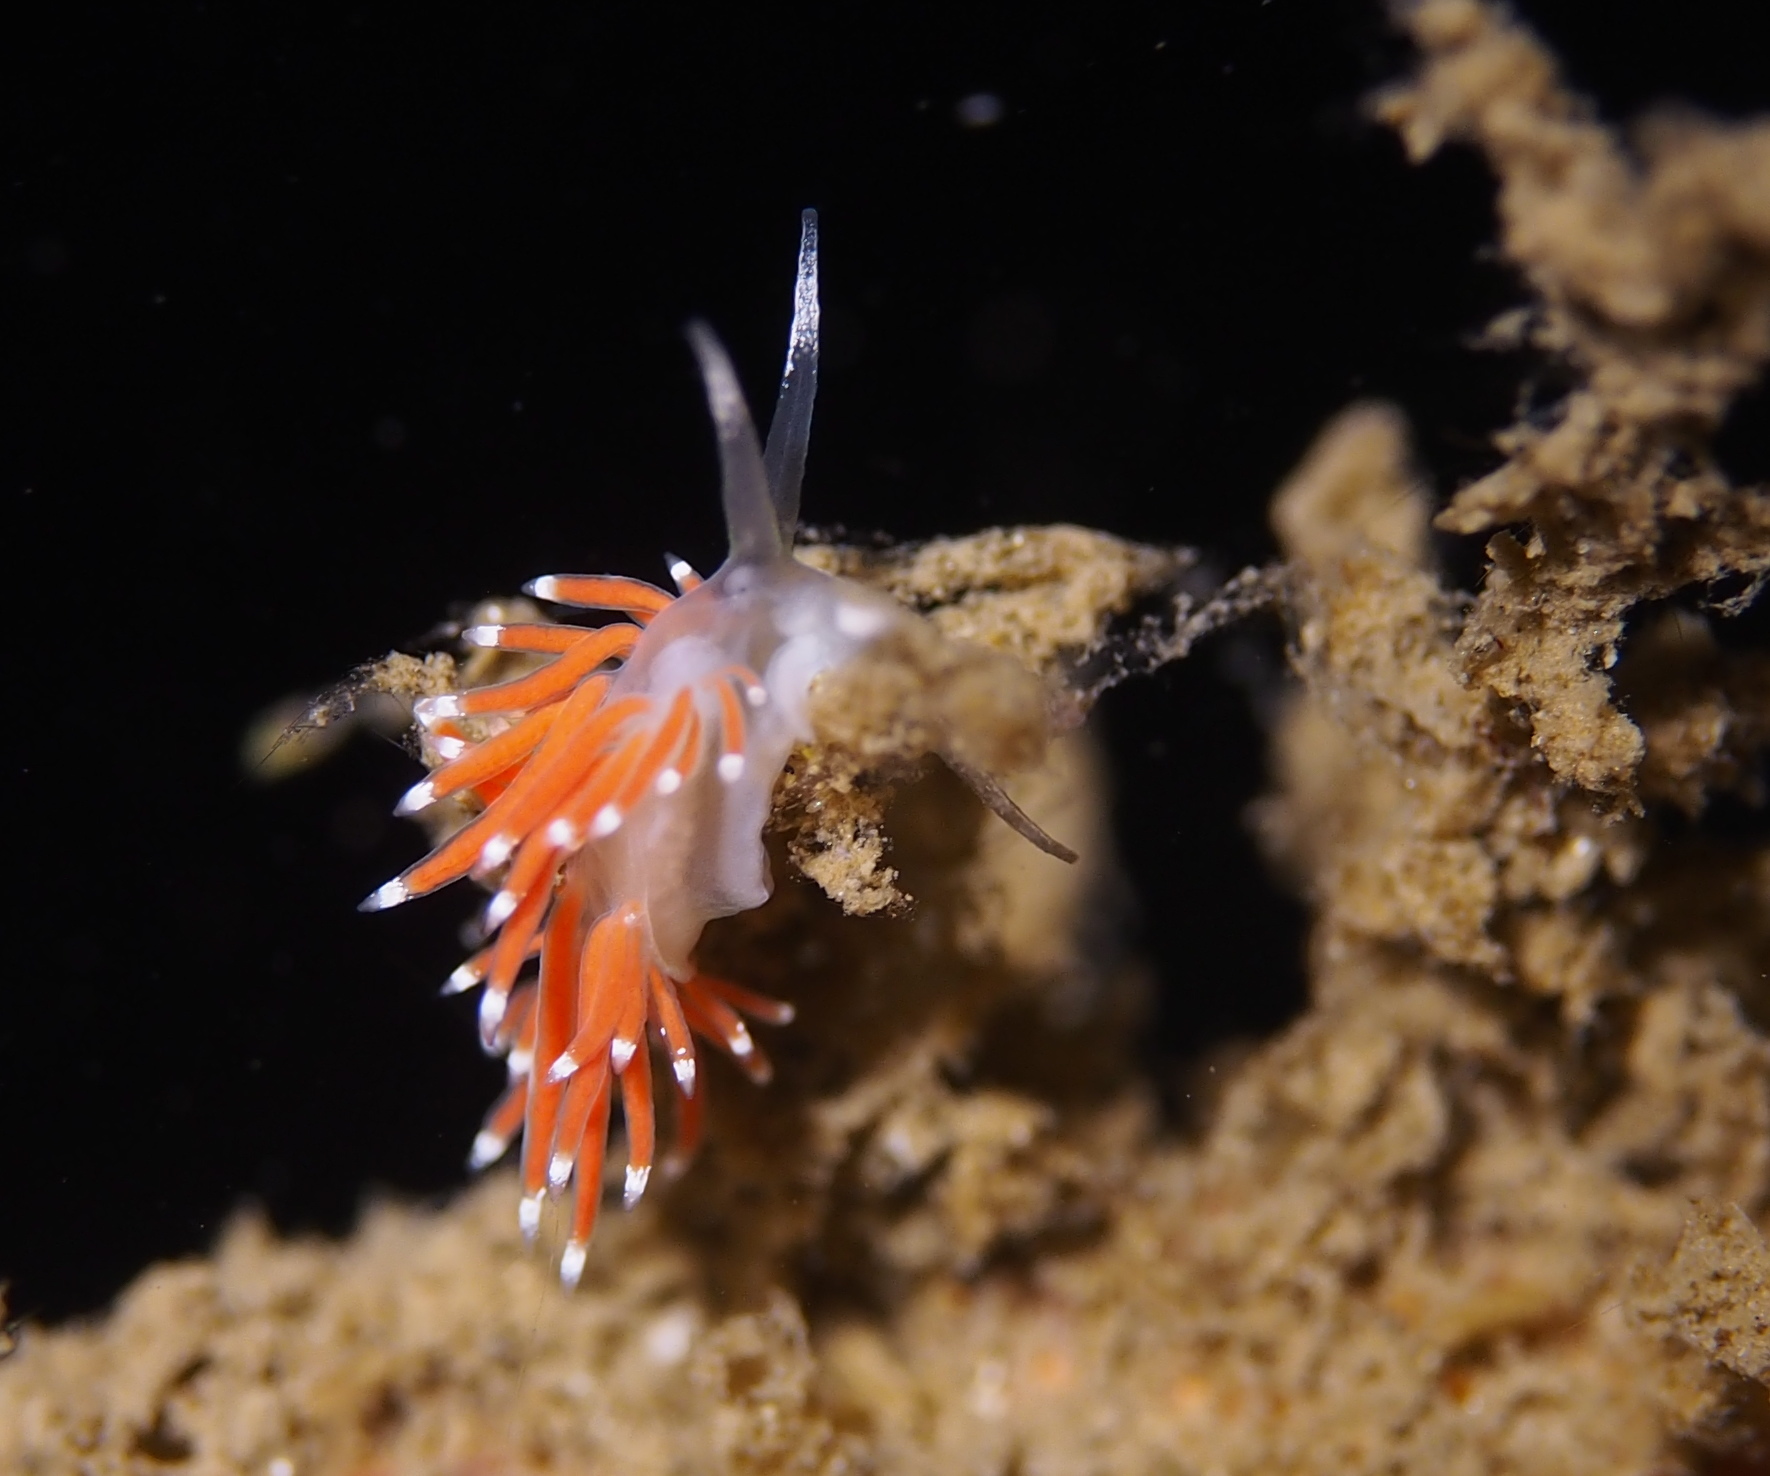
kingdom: Animalia
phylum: Mollusca
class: Gastropoda
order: Nudibranchia
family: Coryphellidae
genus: Coryphella
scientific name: Coryphella gracilis
